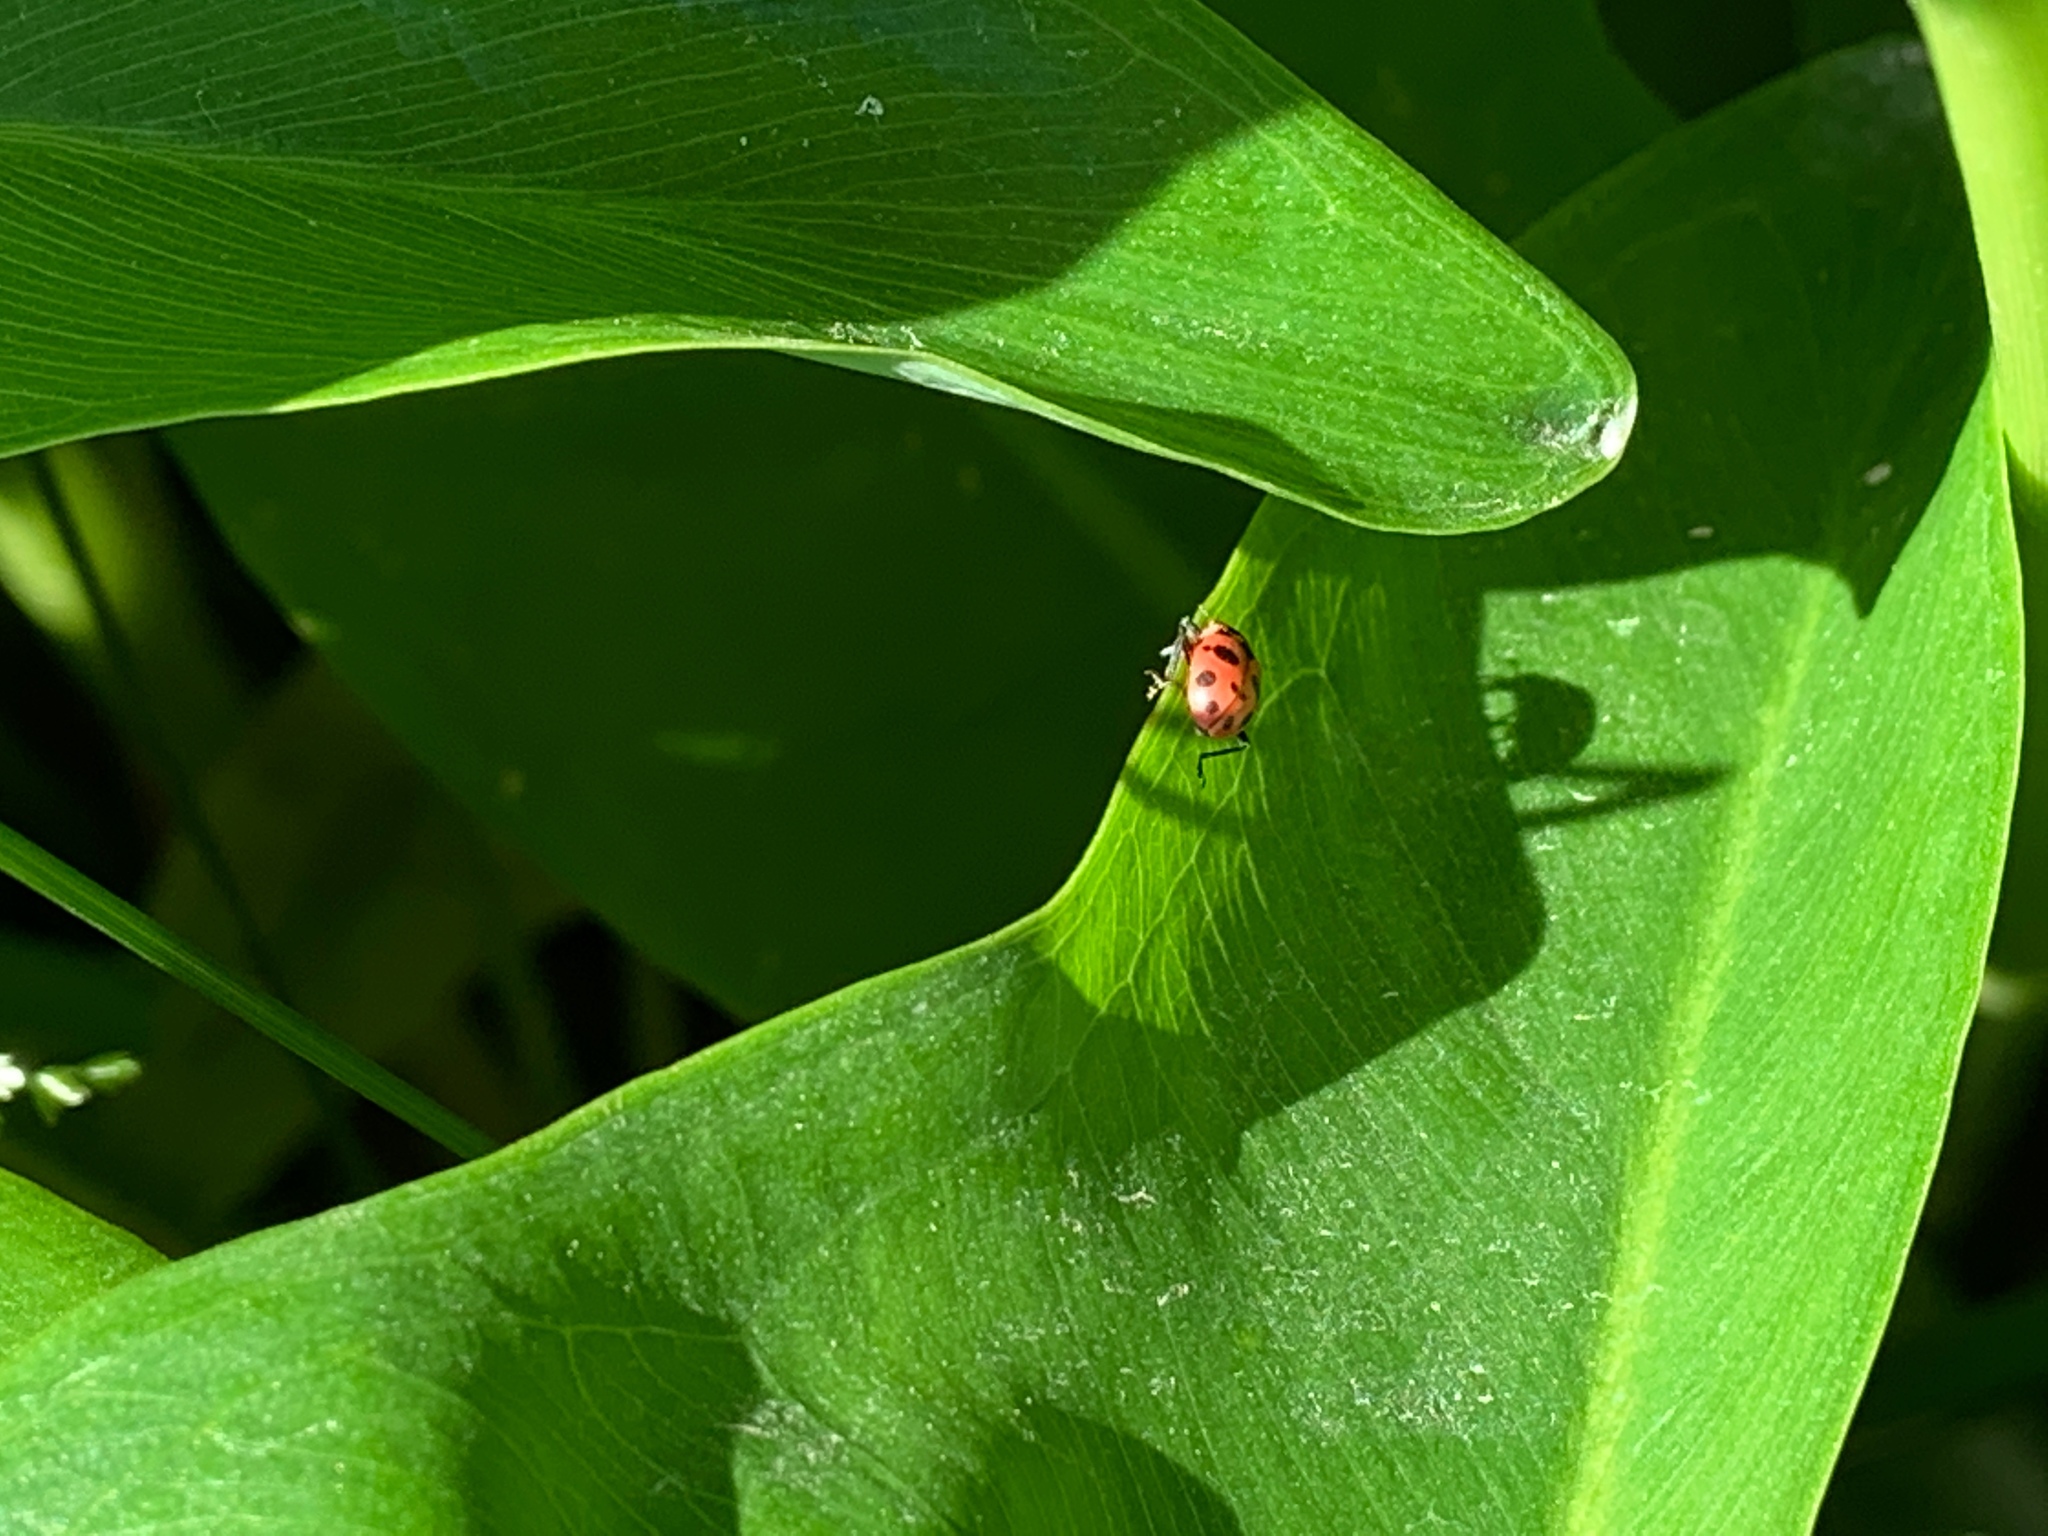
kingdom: Animalia
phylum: Arthropoda
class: Insecta
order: Coleoptera
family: Coccinellidae
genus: Coleomegilla
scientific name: Coleomegilla maculata
